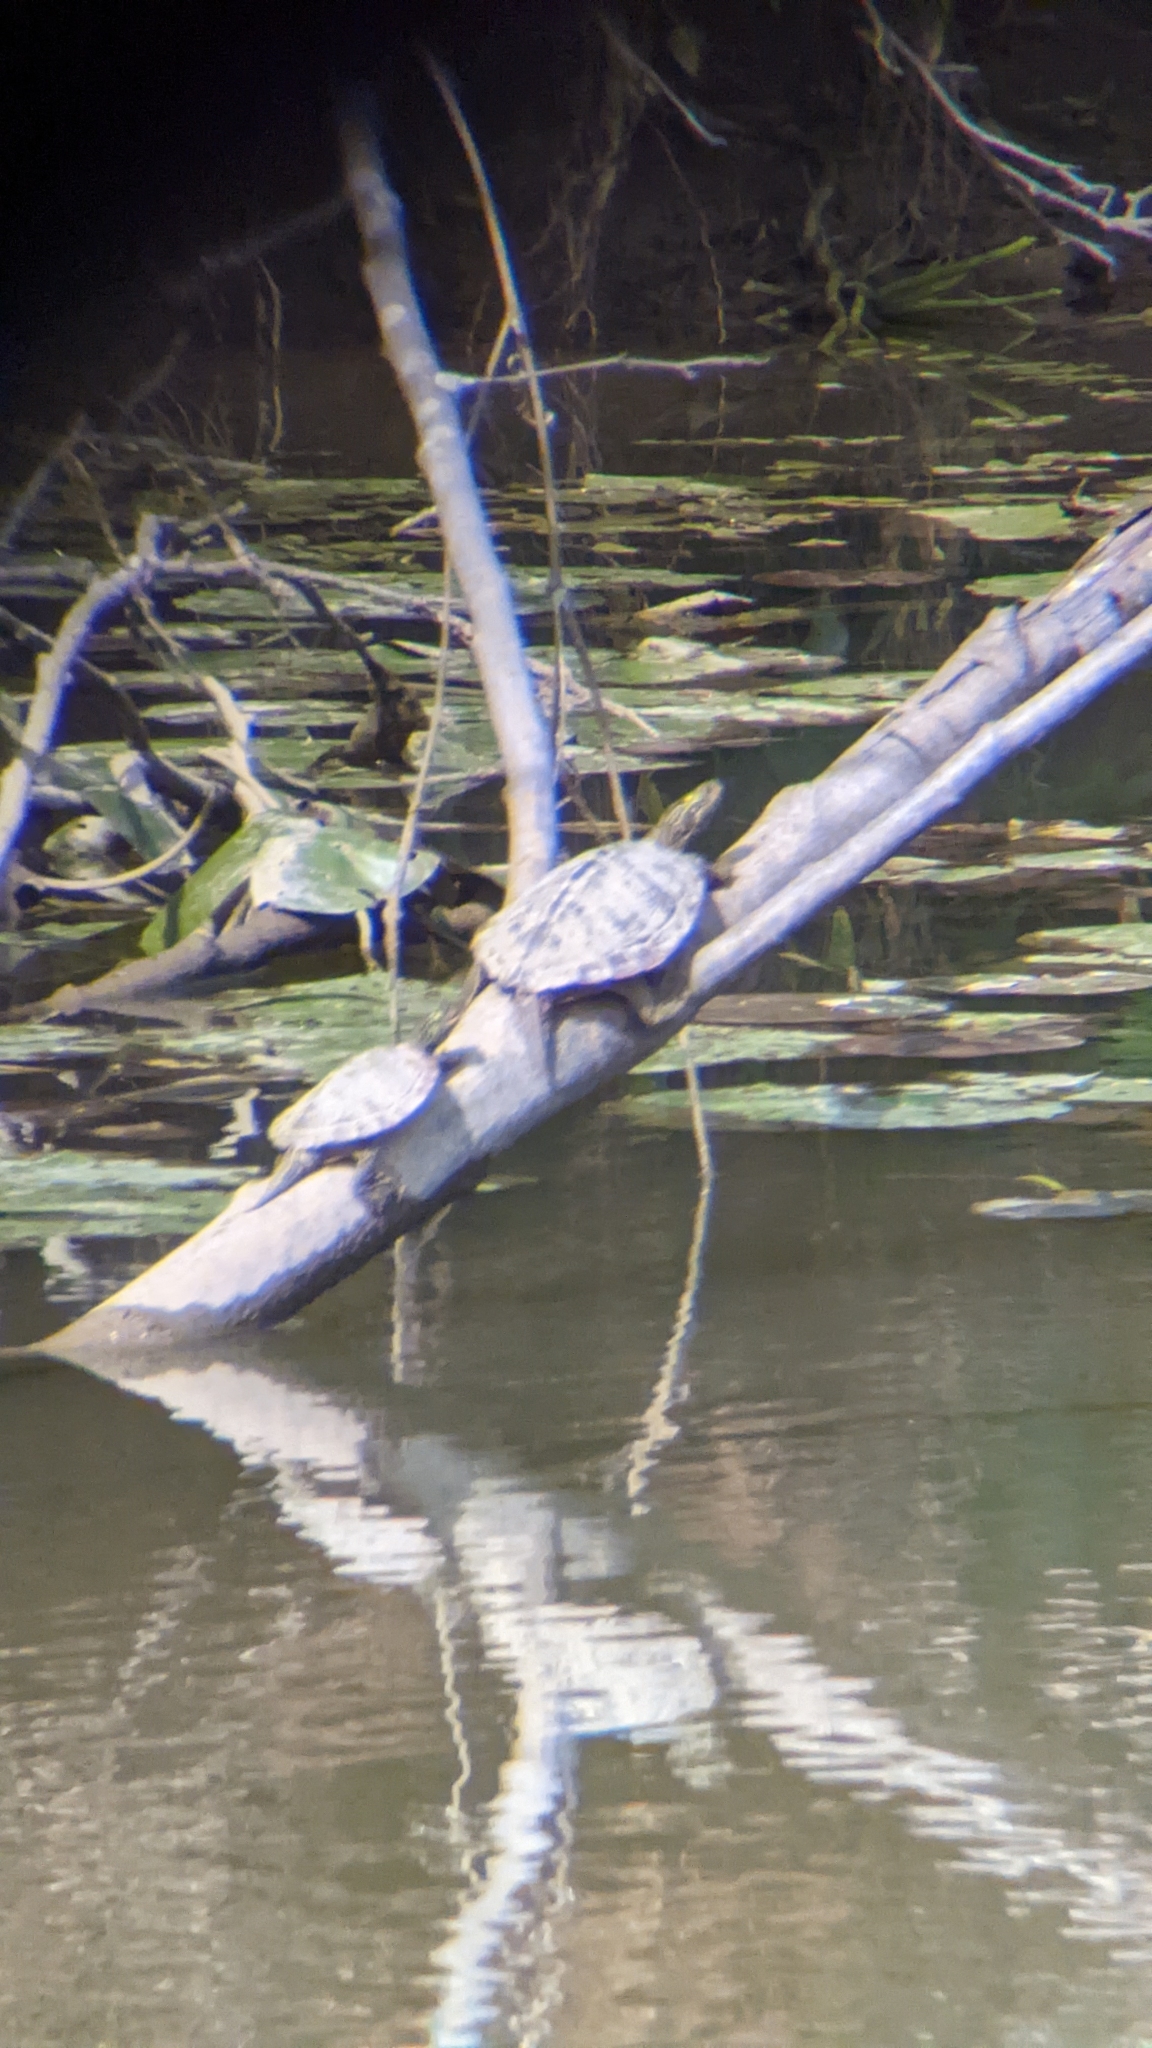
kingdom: Animalia
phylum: Chordata
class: Testudines
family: Emydidae
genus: Graptemys
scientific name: Graptemys geographica
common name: Common map turtle
